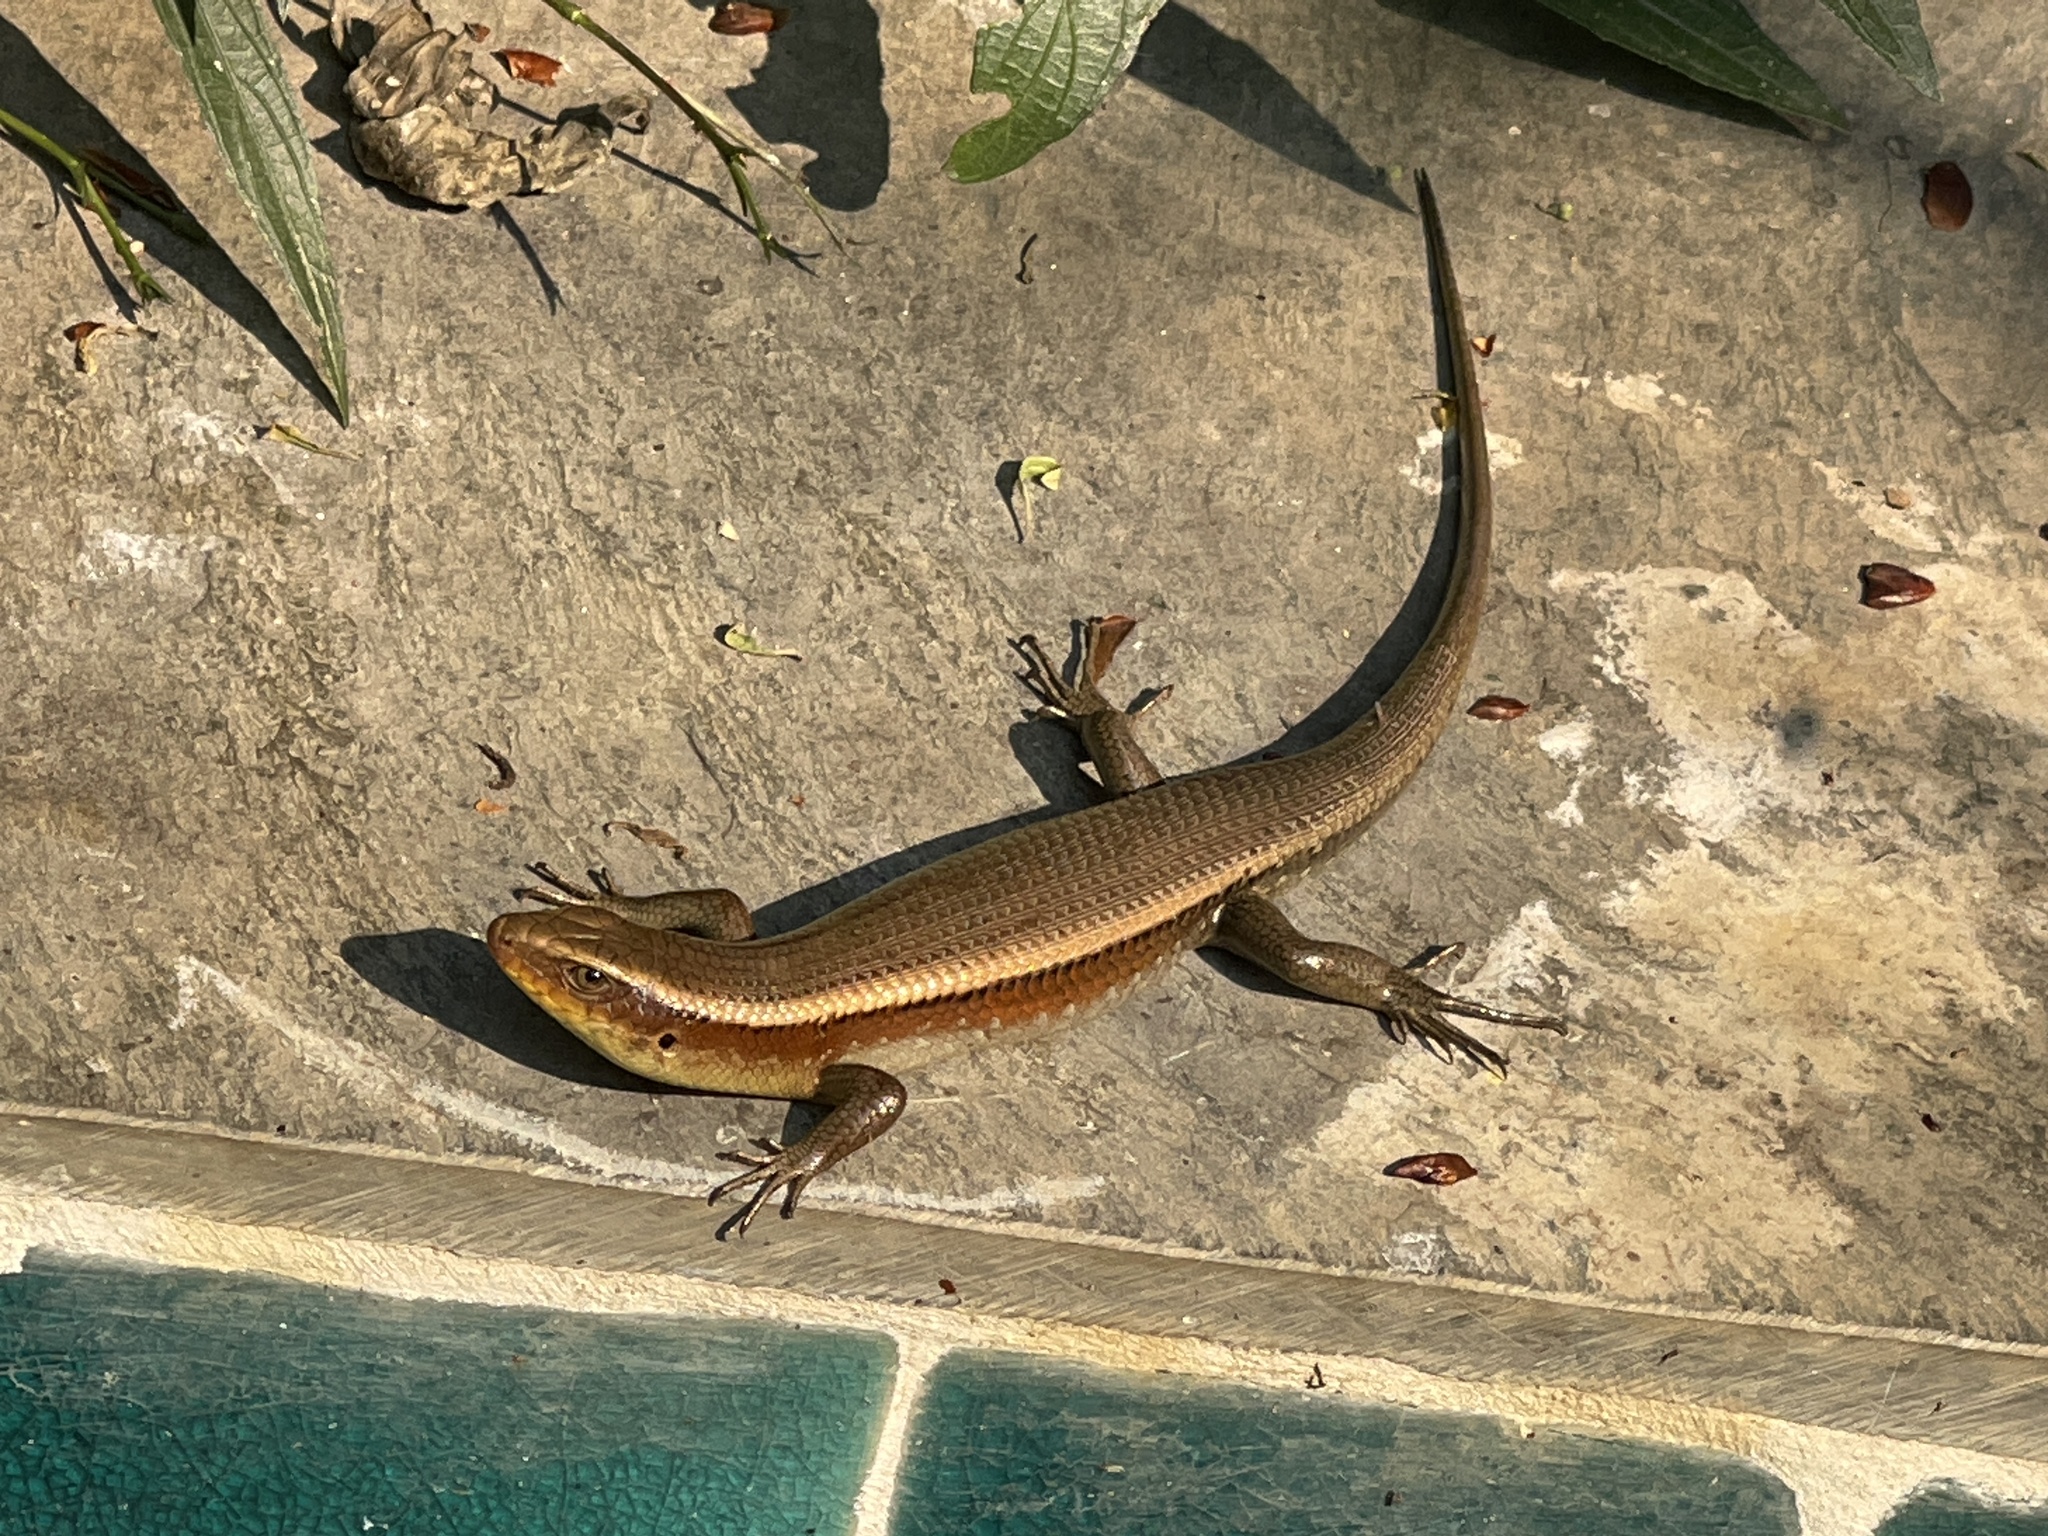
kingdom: Animalia
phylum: Chordata
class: Squamata
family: Scincidae
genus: Eutropis
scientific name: Eutropis multifasciata
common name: Common mabuya
